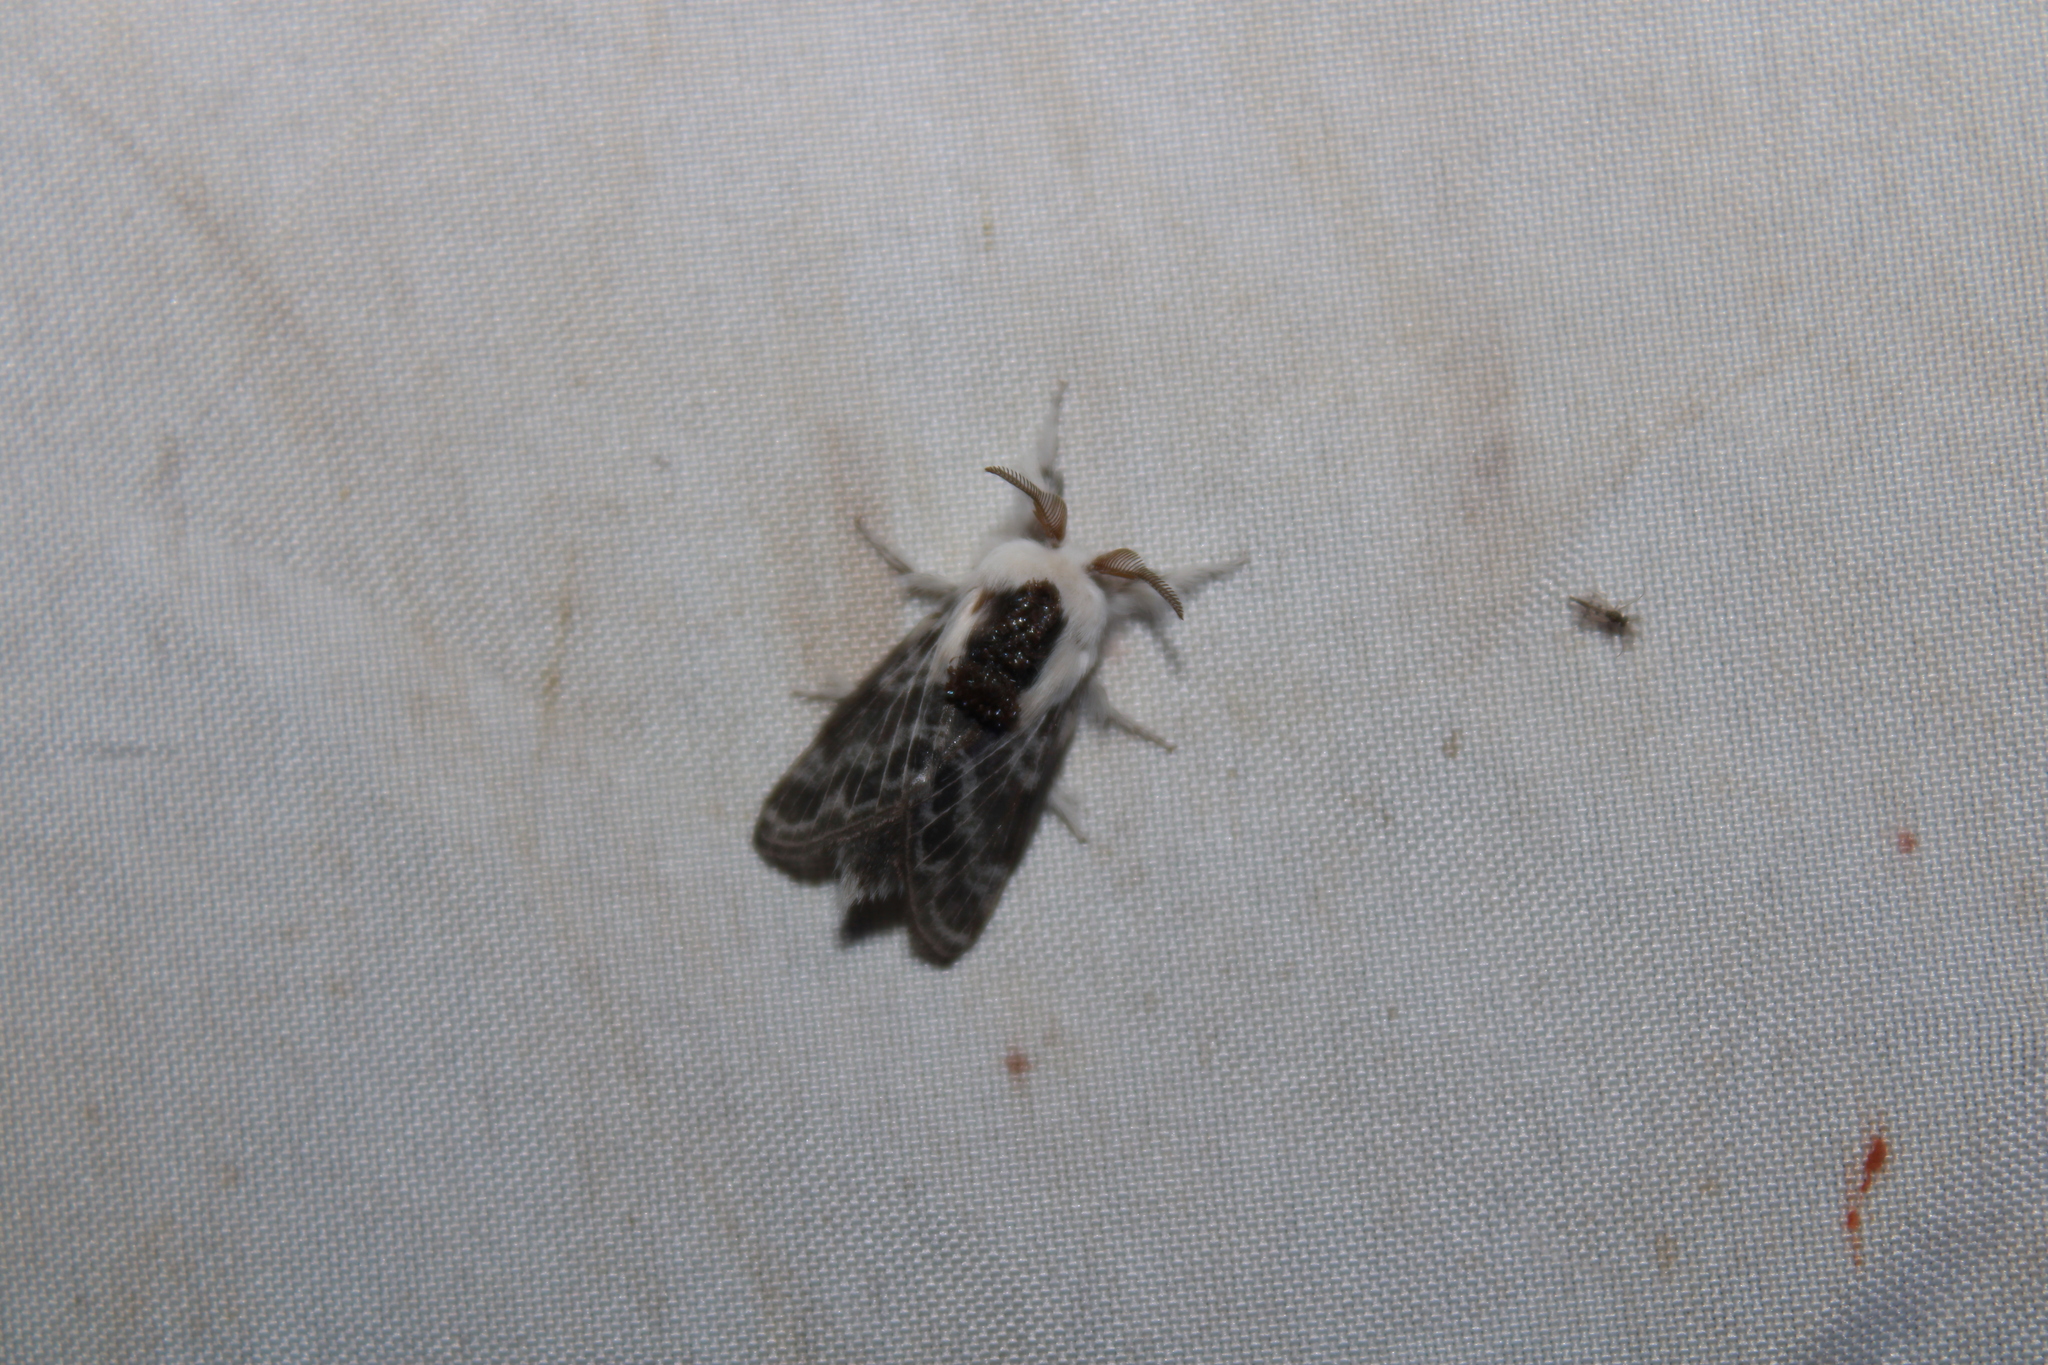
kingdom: Animalia
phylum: Arthropoda
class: Insecta
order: Lepidoptera
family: Lasiocampidae
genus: Tolype
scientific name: Tolype laricis
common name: Larch tolype moth
